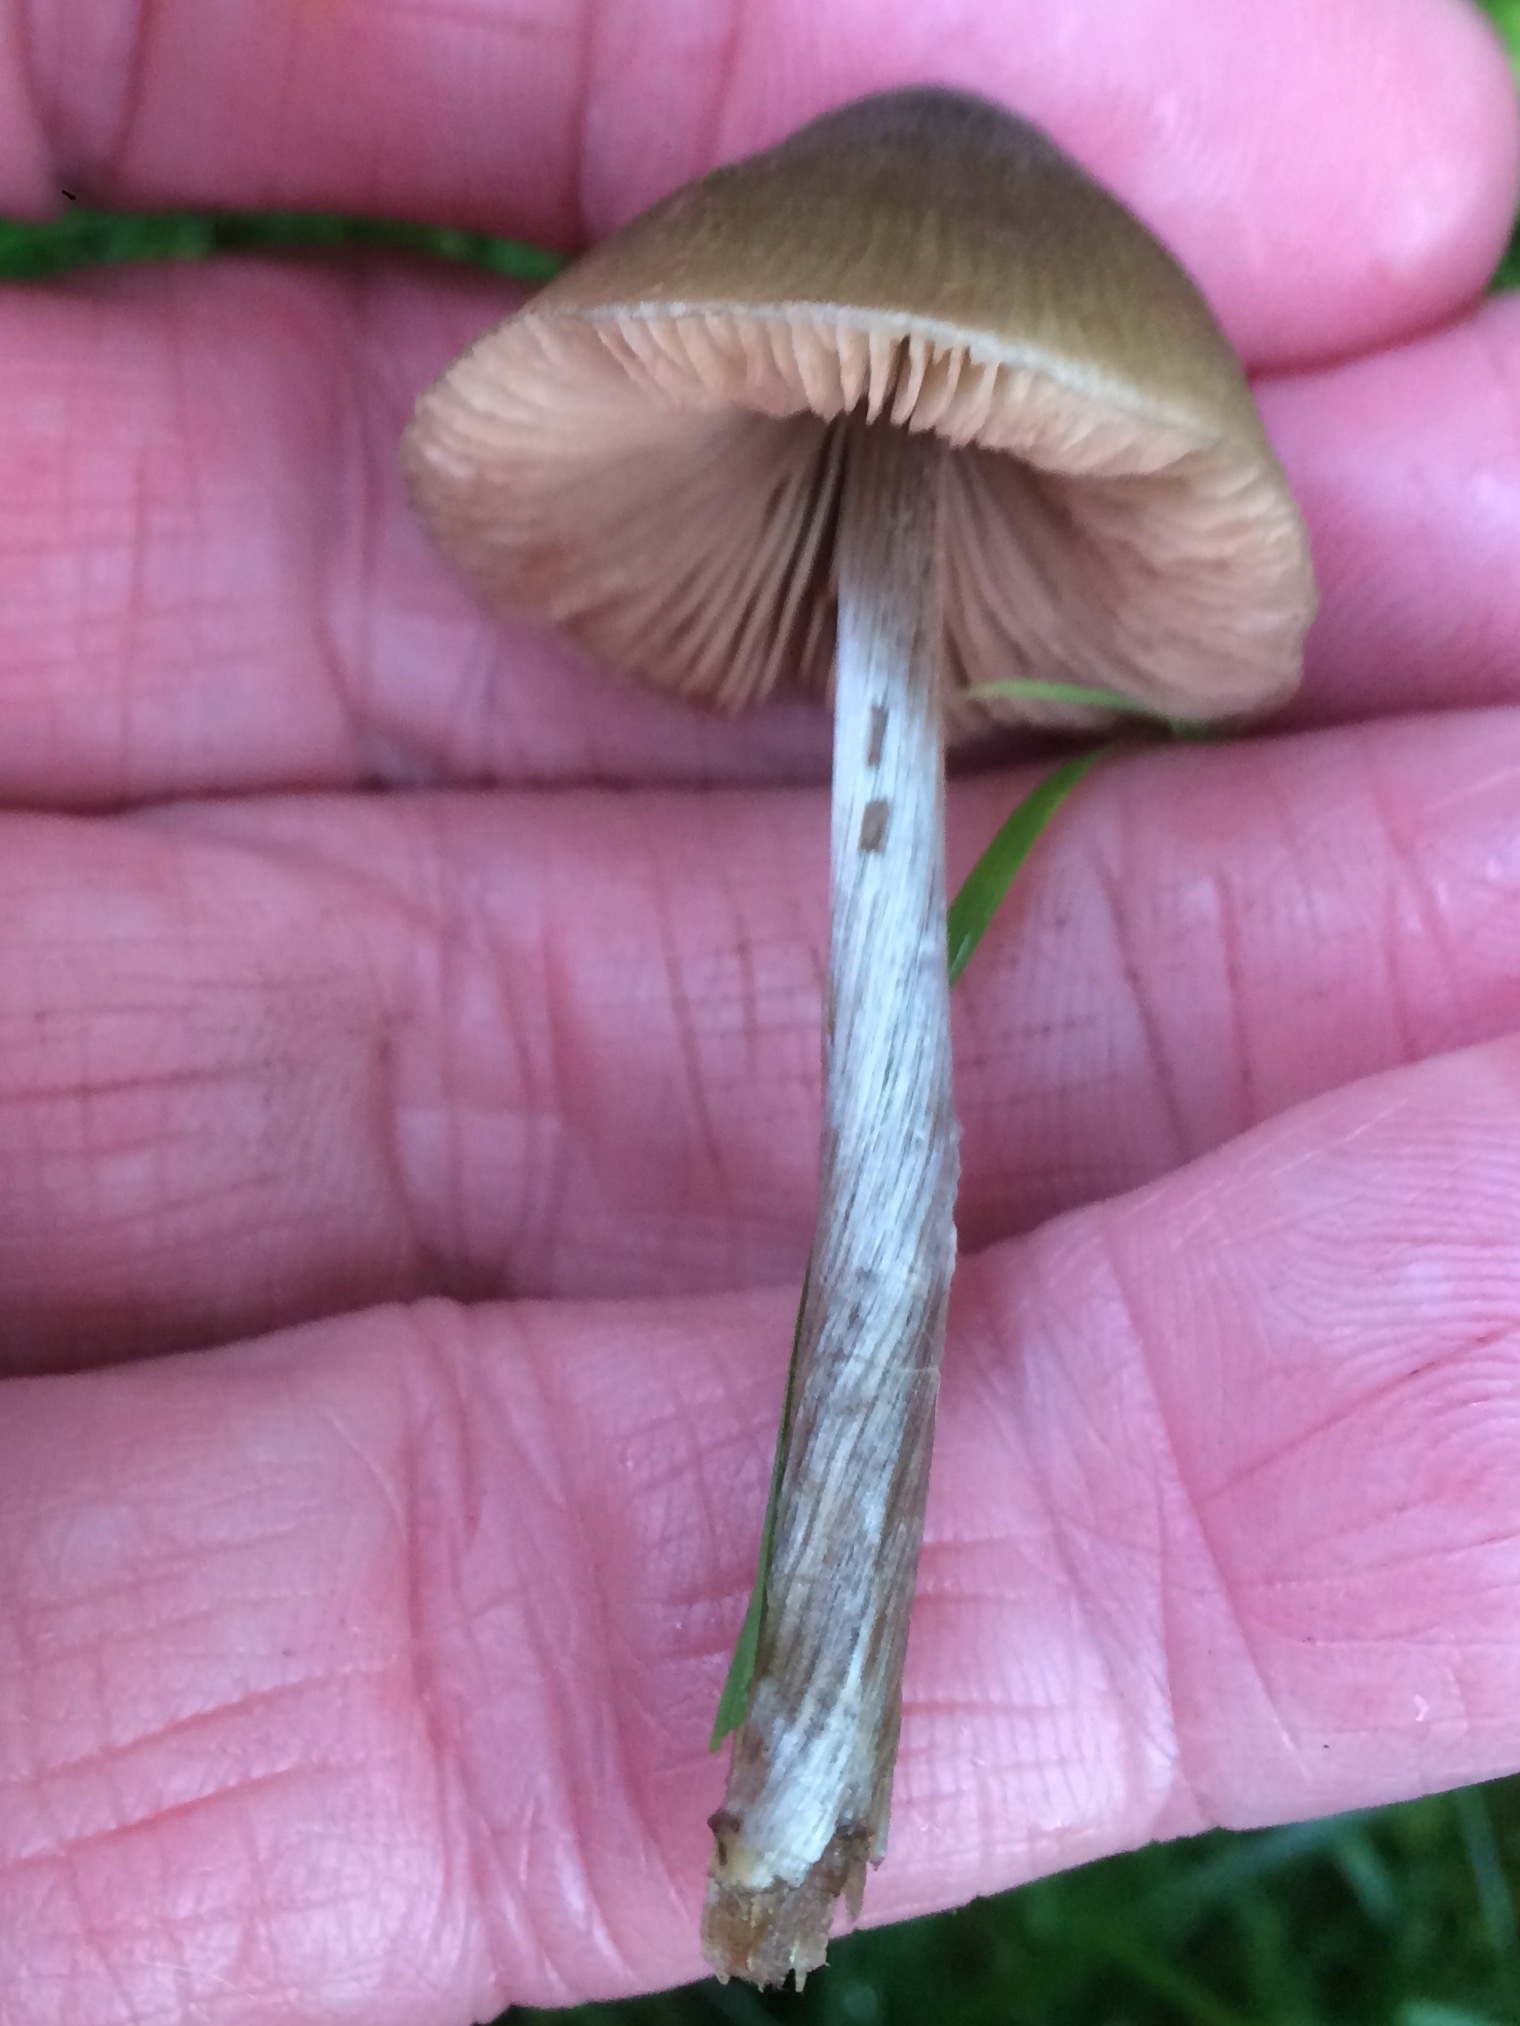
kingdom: Fungi
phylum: Basidiomycota
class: Agaricomycetes
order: Agaricales
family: Entolomataceae
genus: Entoloma
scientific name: Entoloma conferendum
